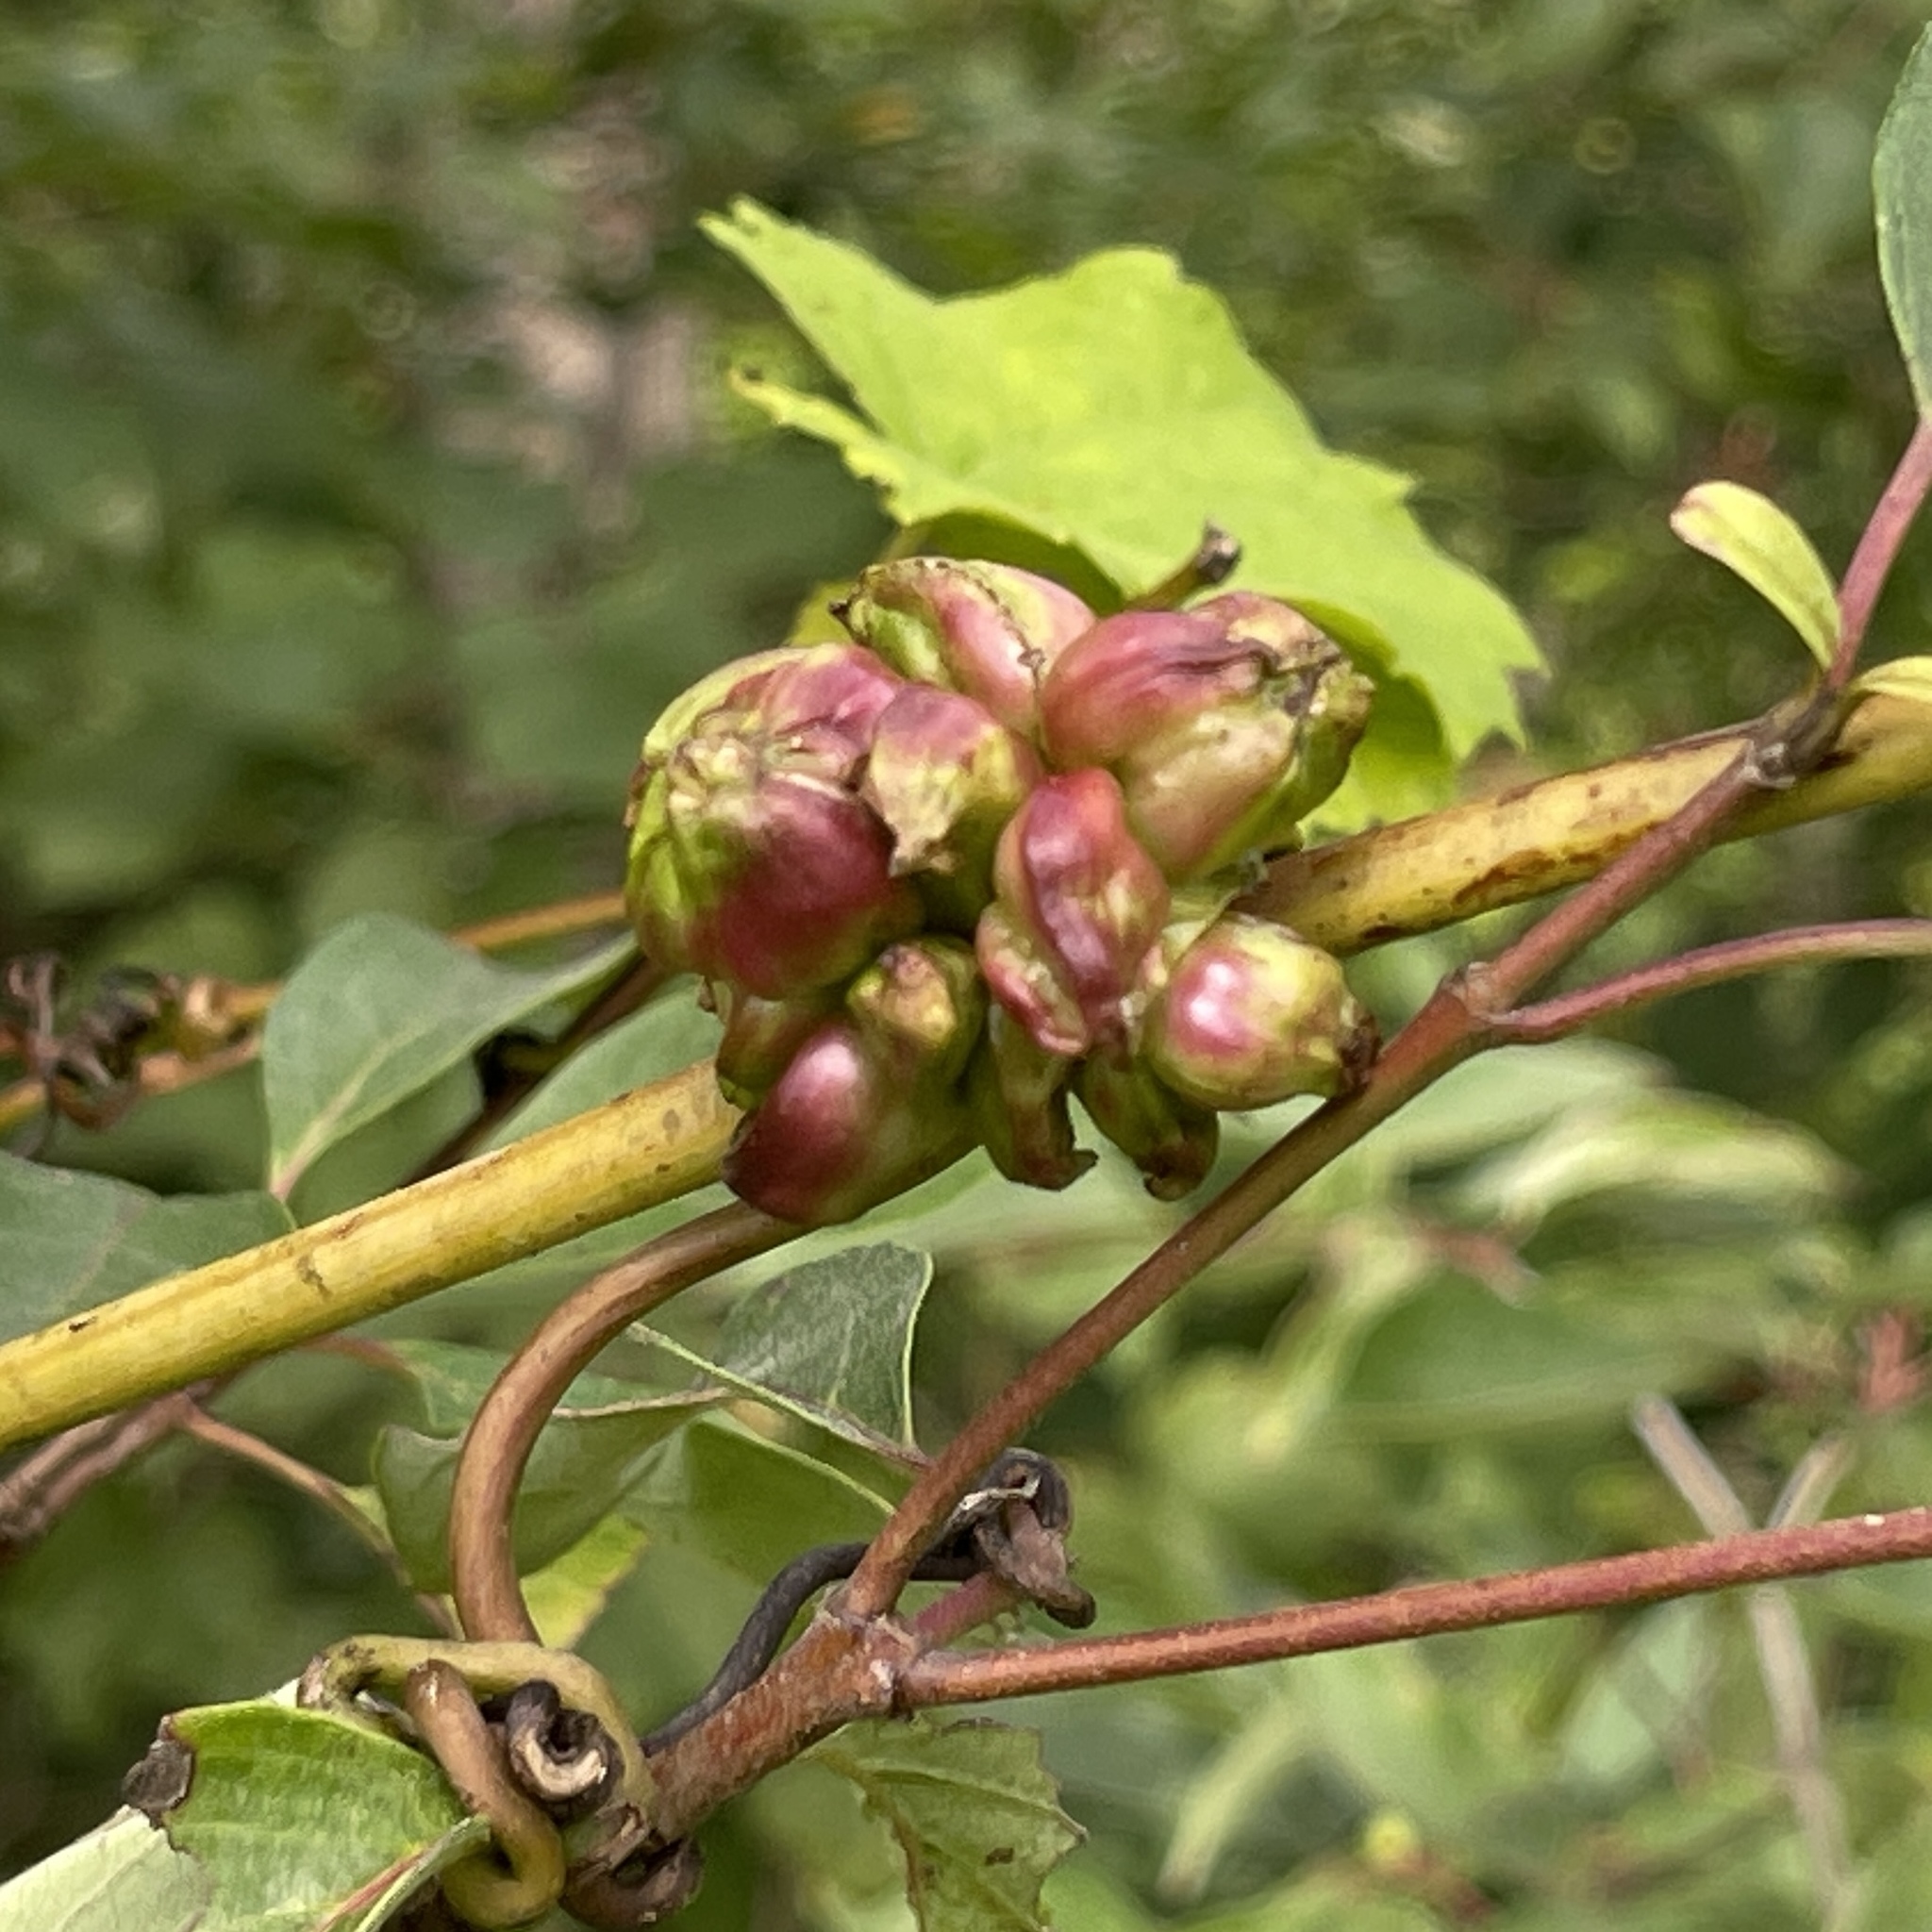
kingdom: Animalia
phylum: Arthropoda
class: Insecta
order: Diptera
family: Cecidomyiidae
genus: Ampelomyia
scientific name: Ampelomyia vitiscoryloides
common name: Grape filbert gall
